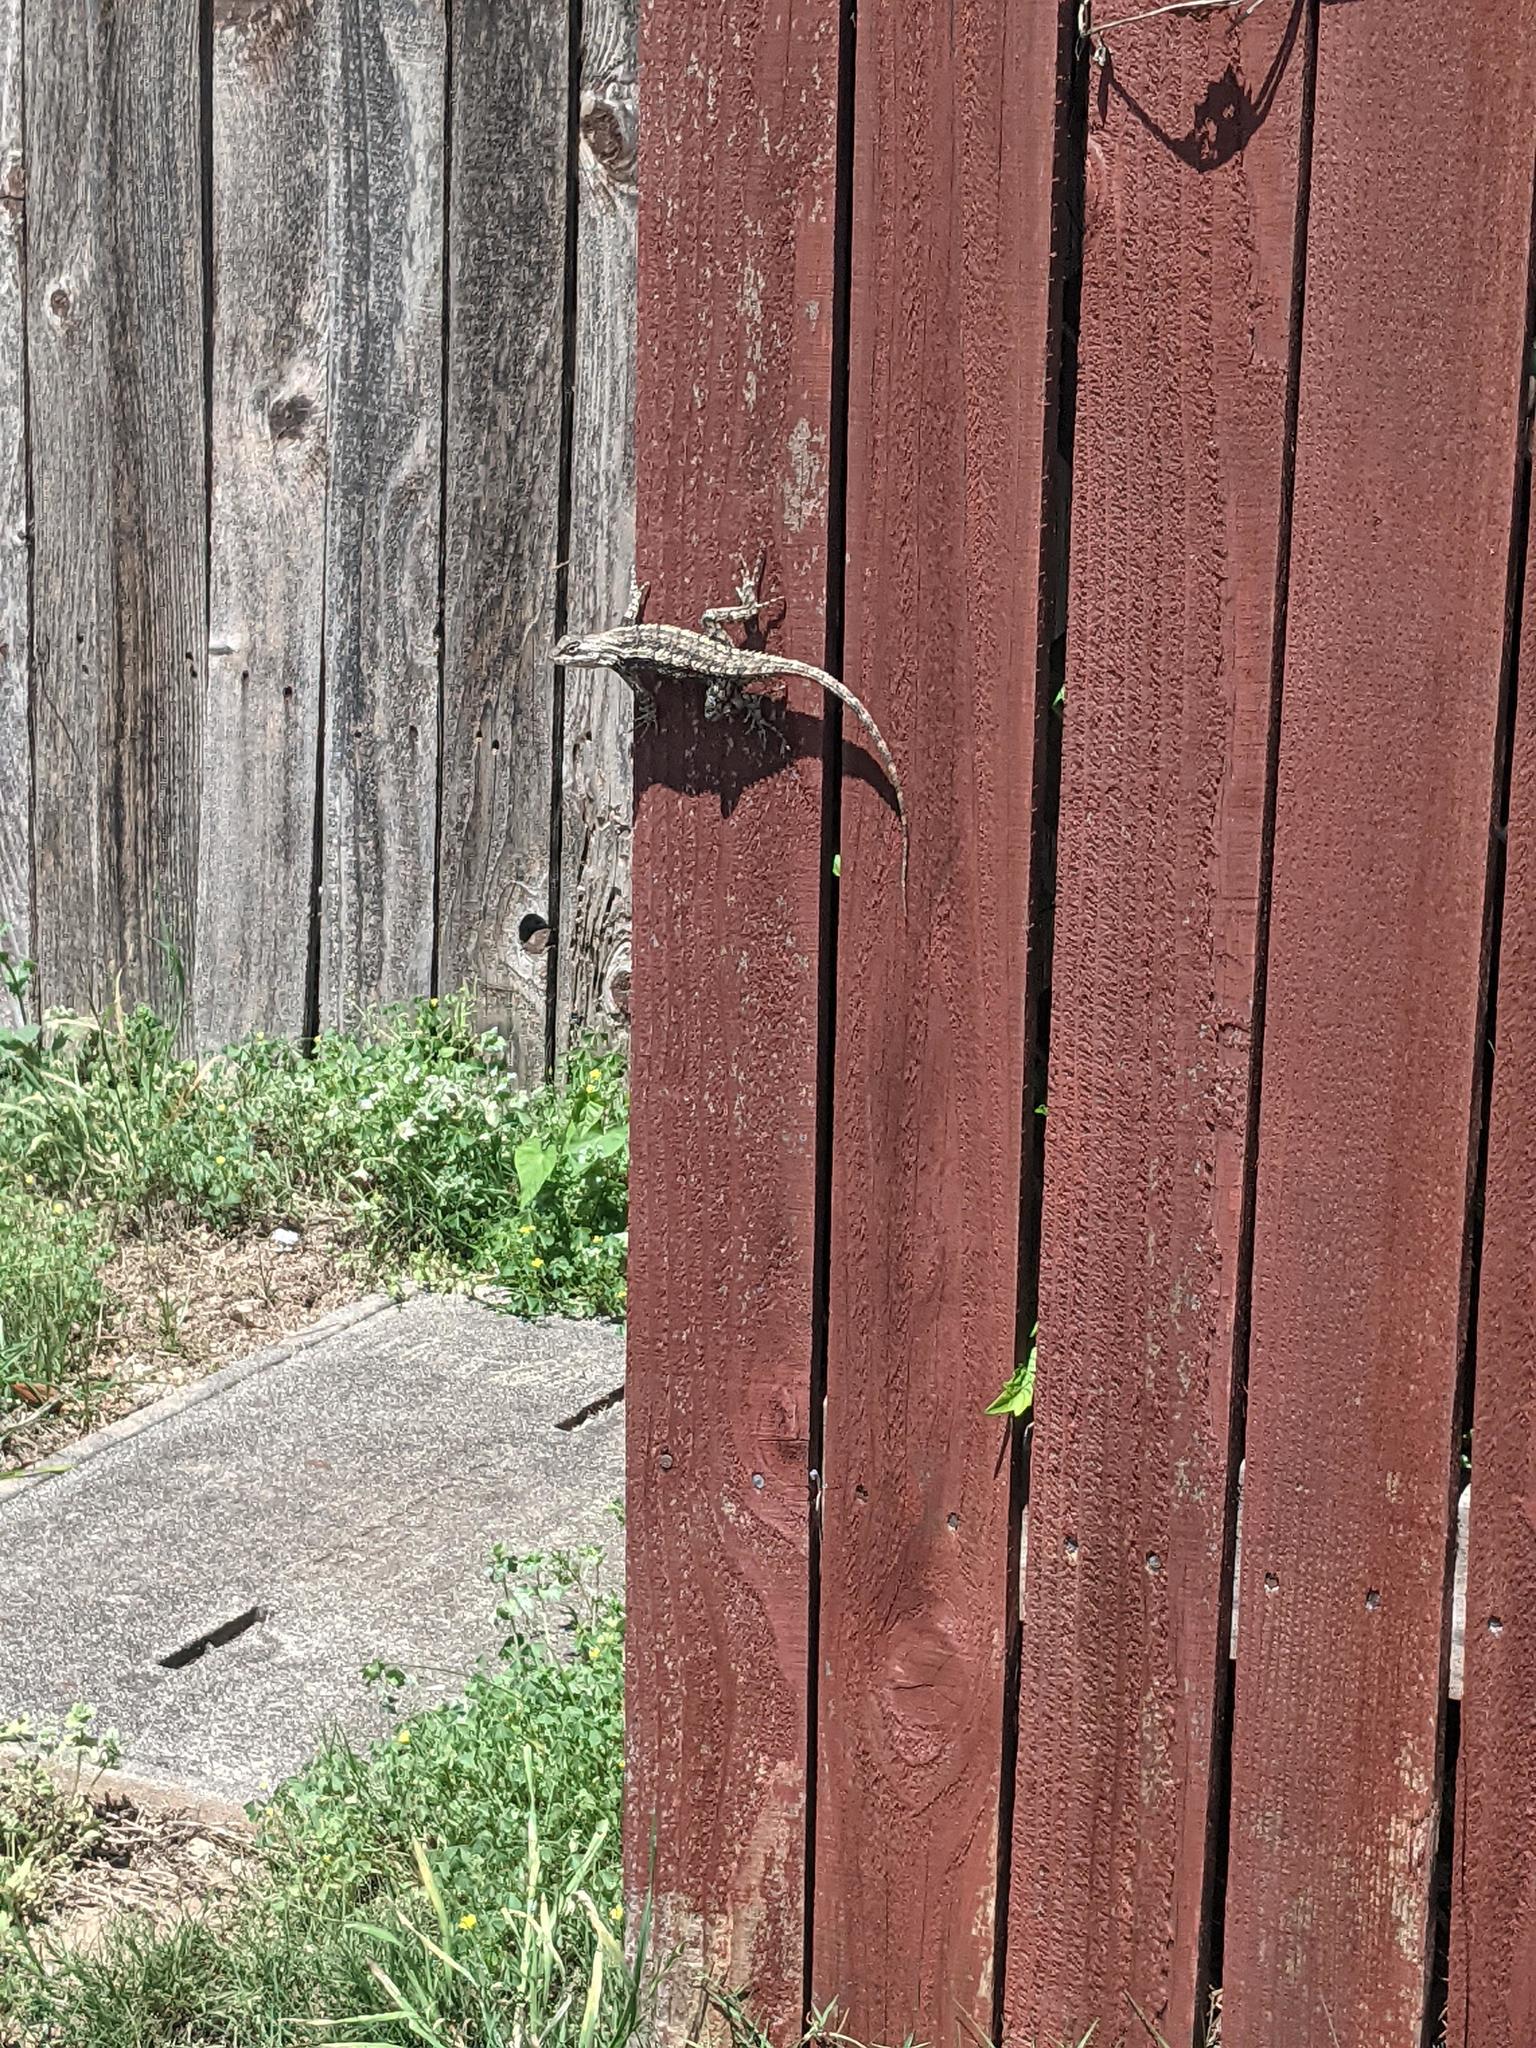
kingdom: Animalia
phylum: Chordata
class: Squamata
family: Phrynosomatidae
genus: Sceloporus
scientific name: Sceloporus olivaceus
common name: Texas spiny lizard
